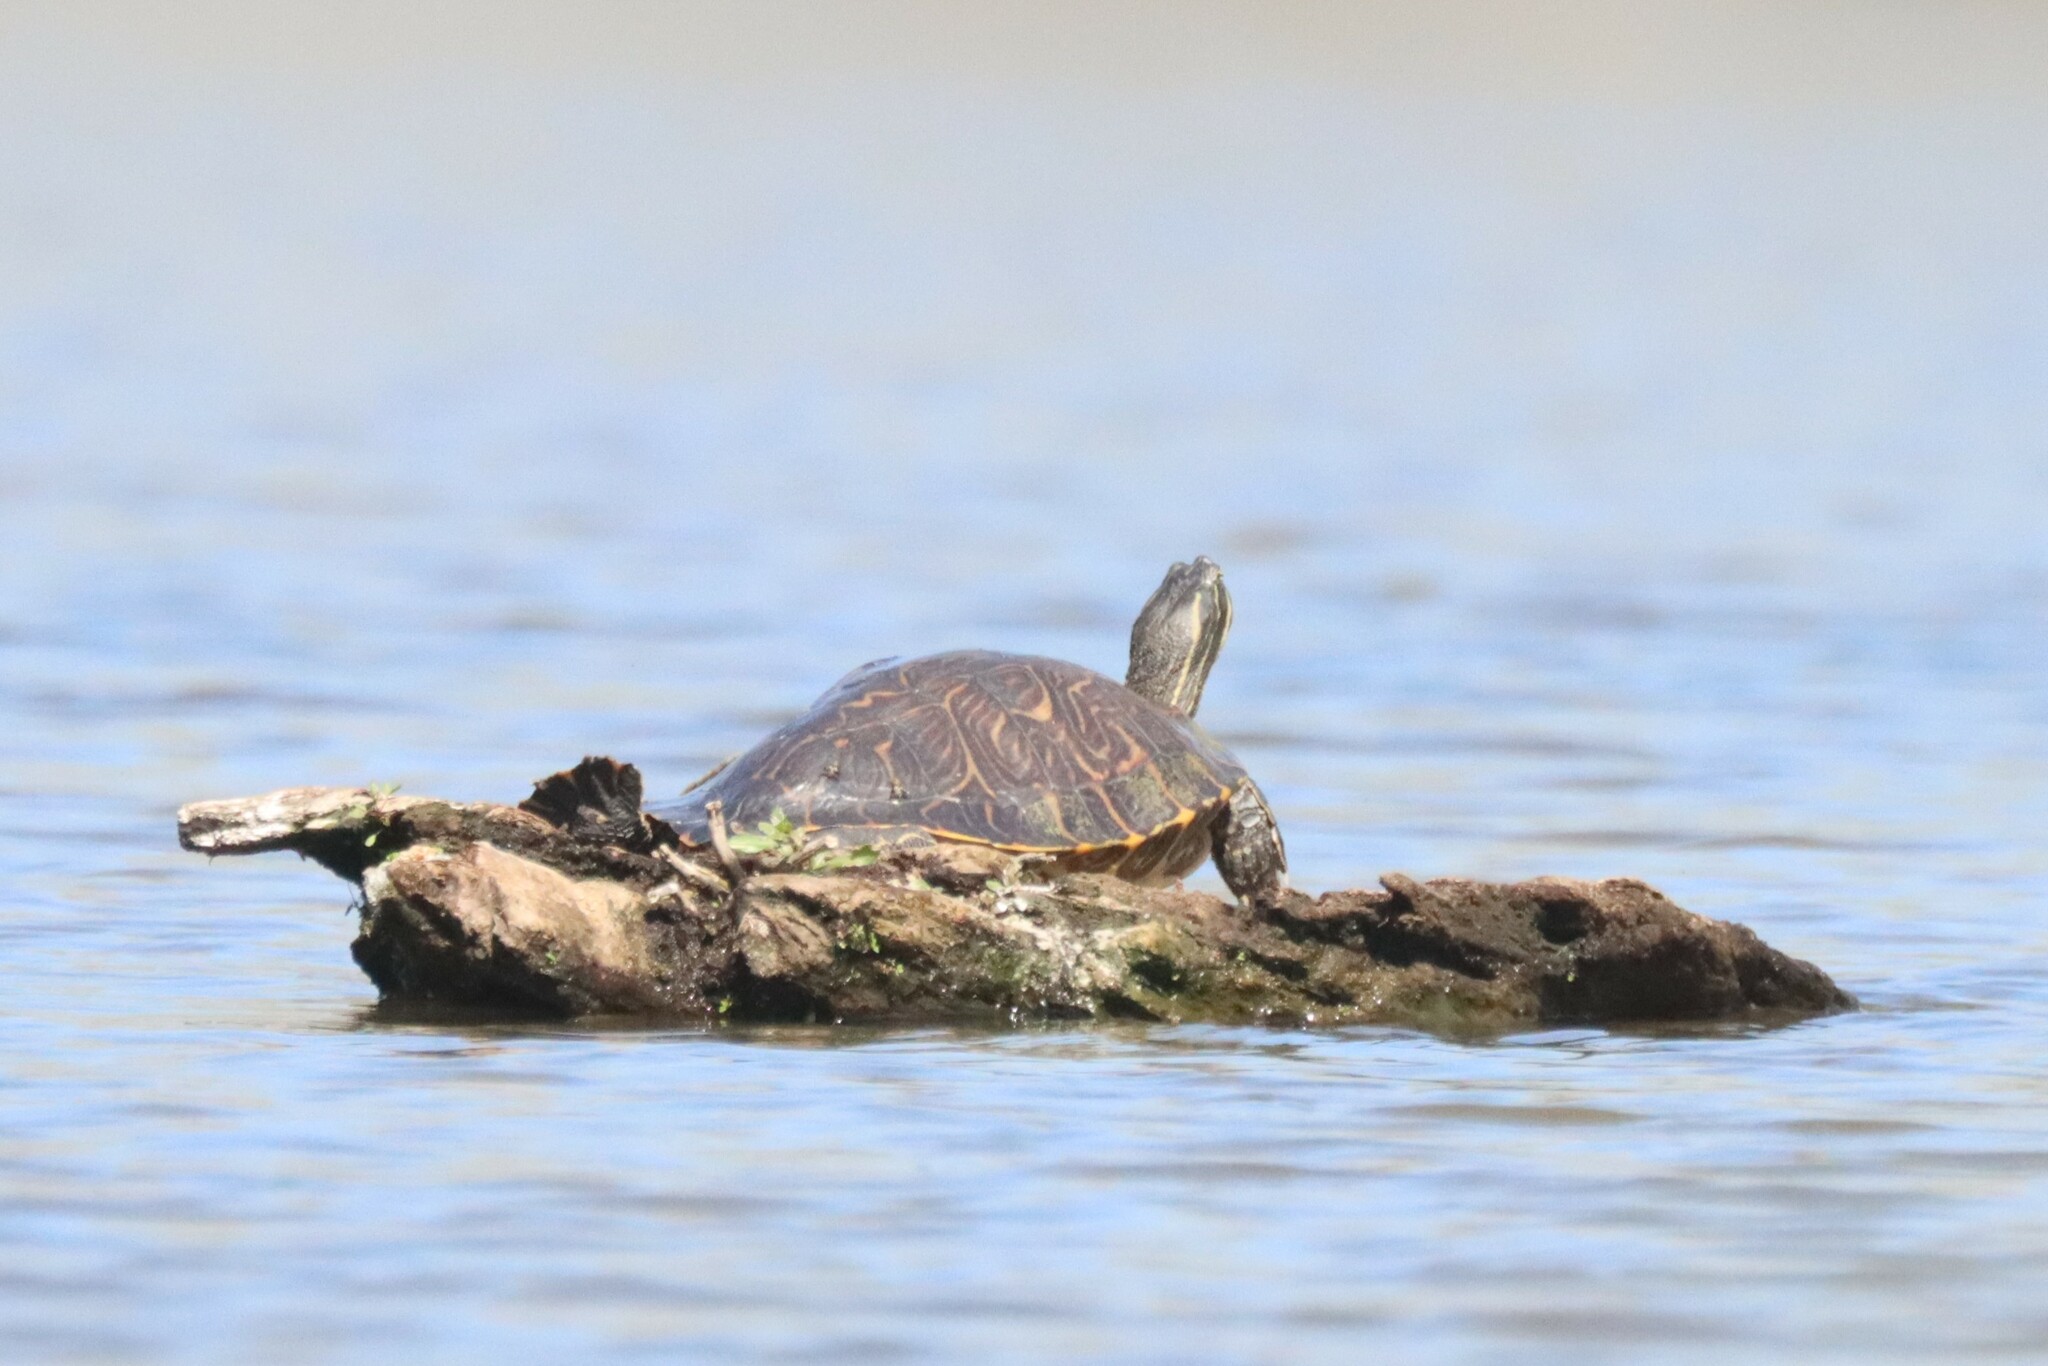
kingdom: Animalia
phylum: Chordata
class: Testudines
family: Emydidae
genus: Pseudemys
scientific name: Pseudemys concinna
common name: Eastern river cooter
